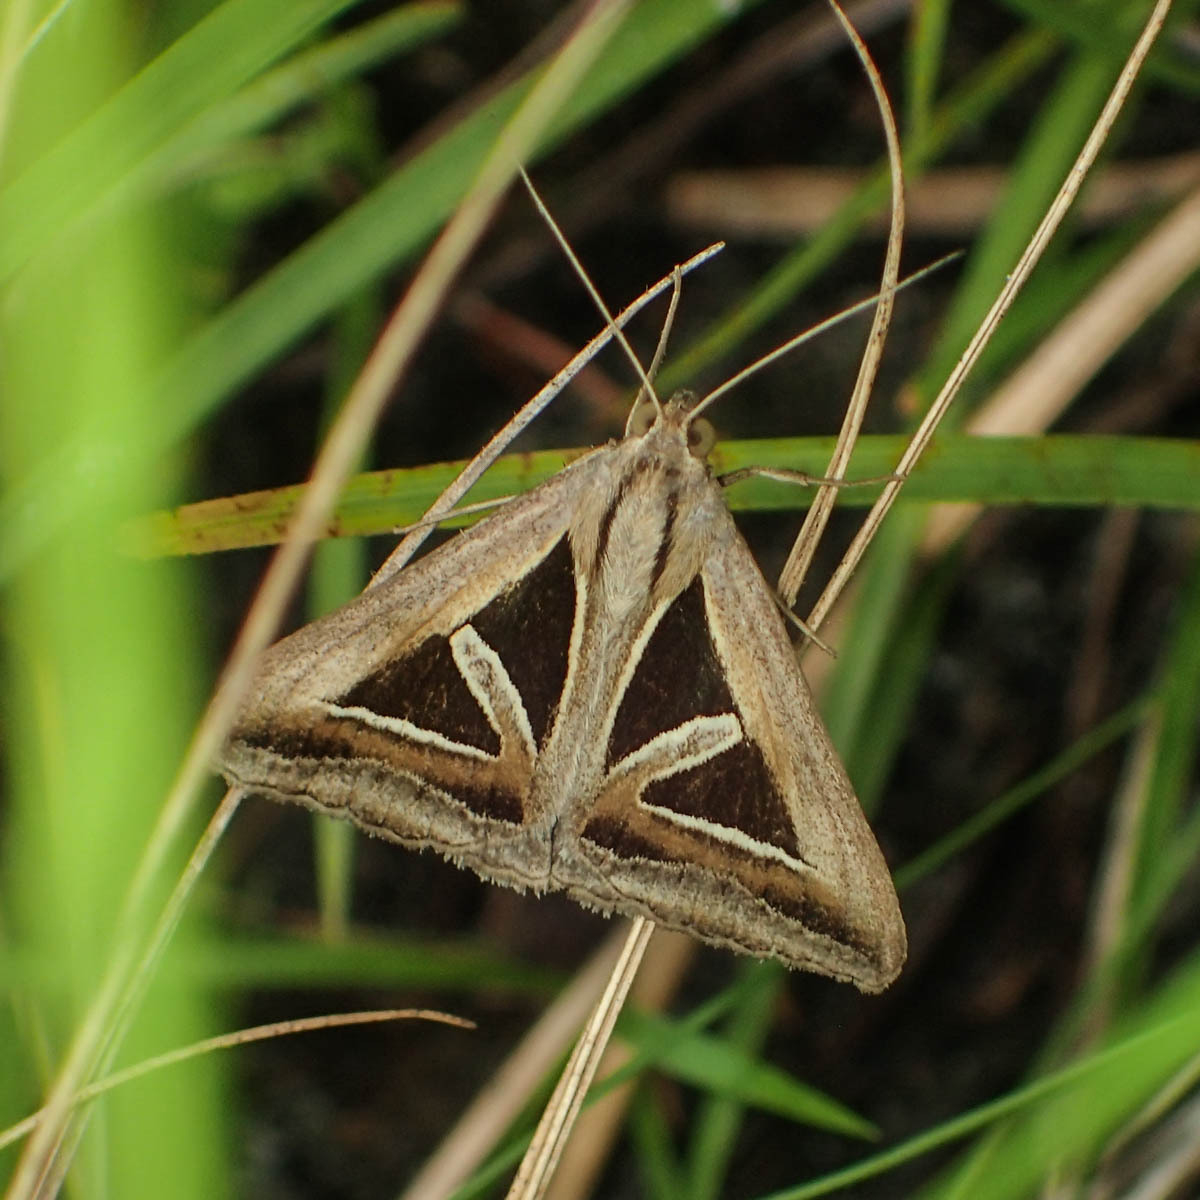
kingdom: Animalia
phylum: Arthropoda
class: Insecta
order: Lepidoptera
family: Erebidae
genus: Trigonodes
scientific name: Trigonodes hyppasia
